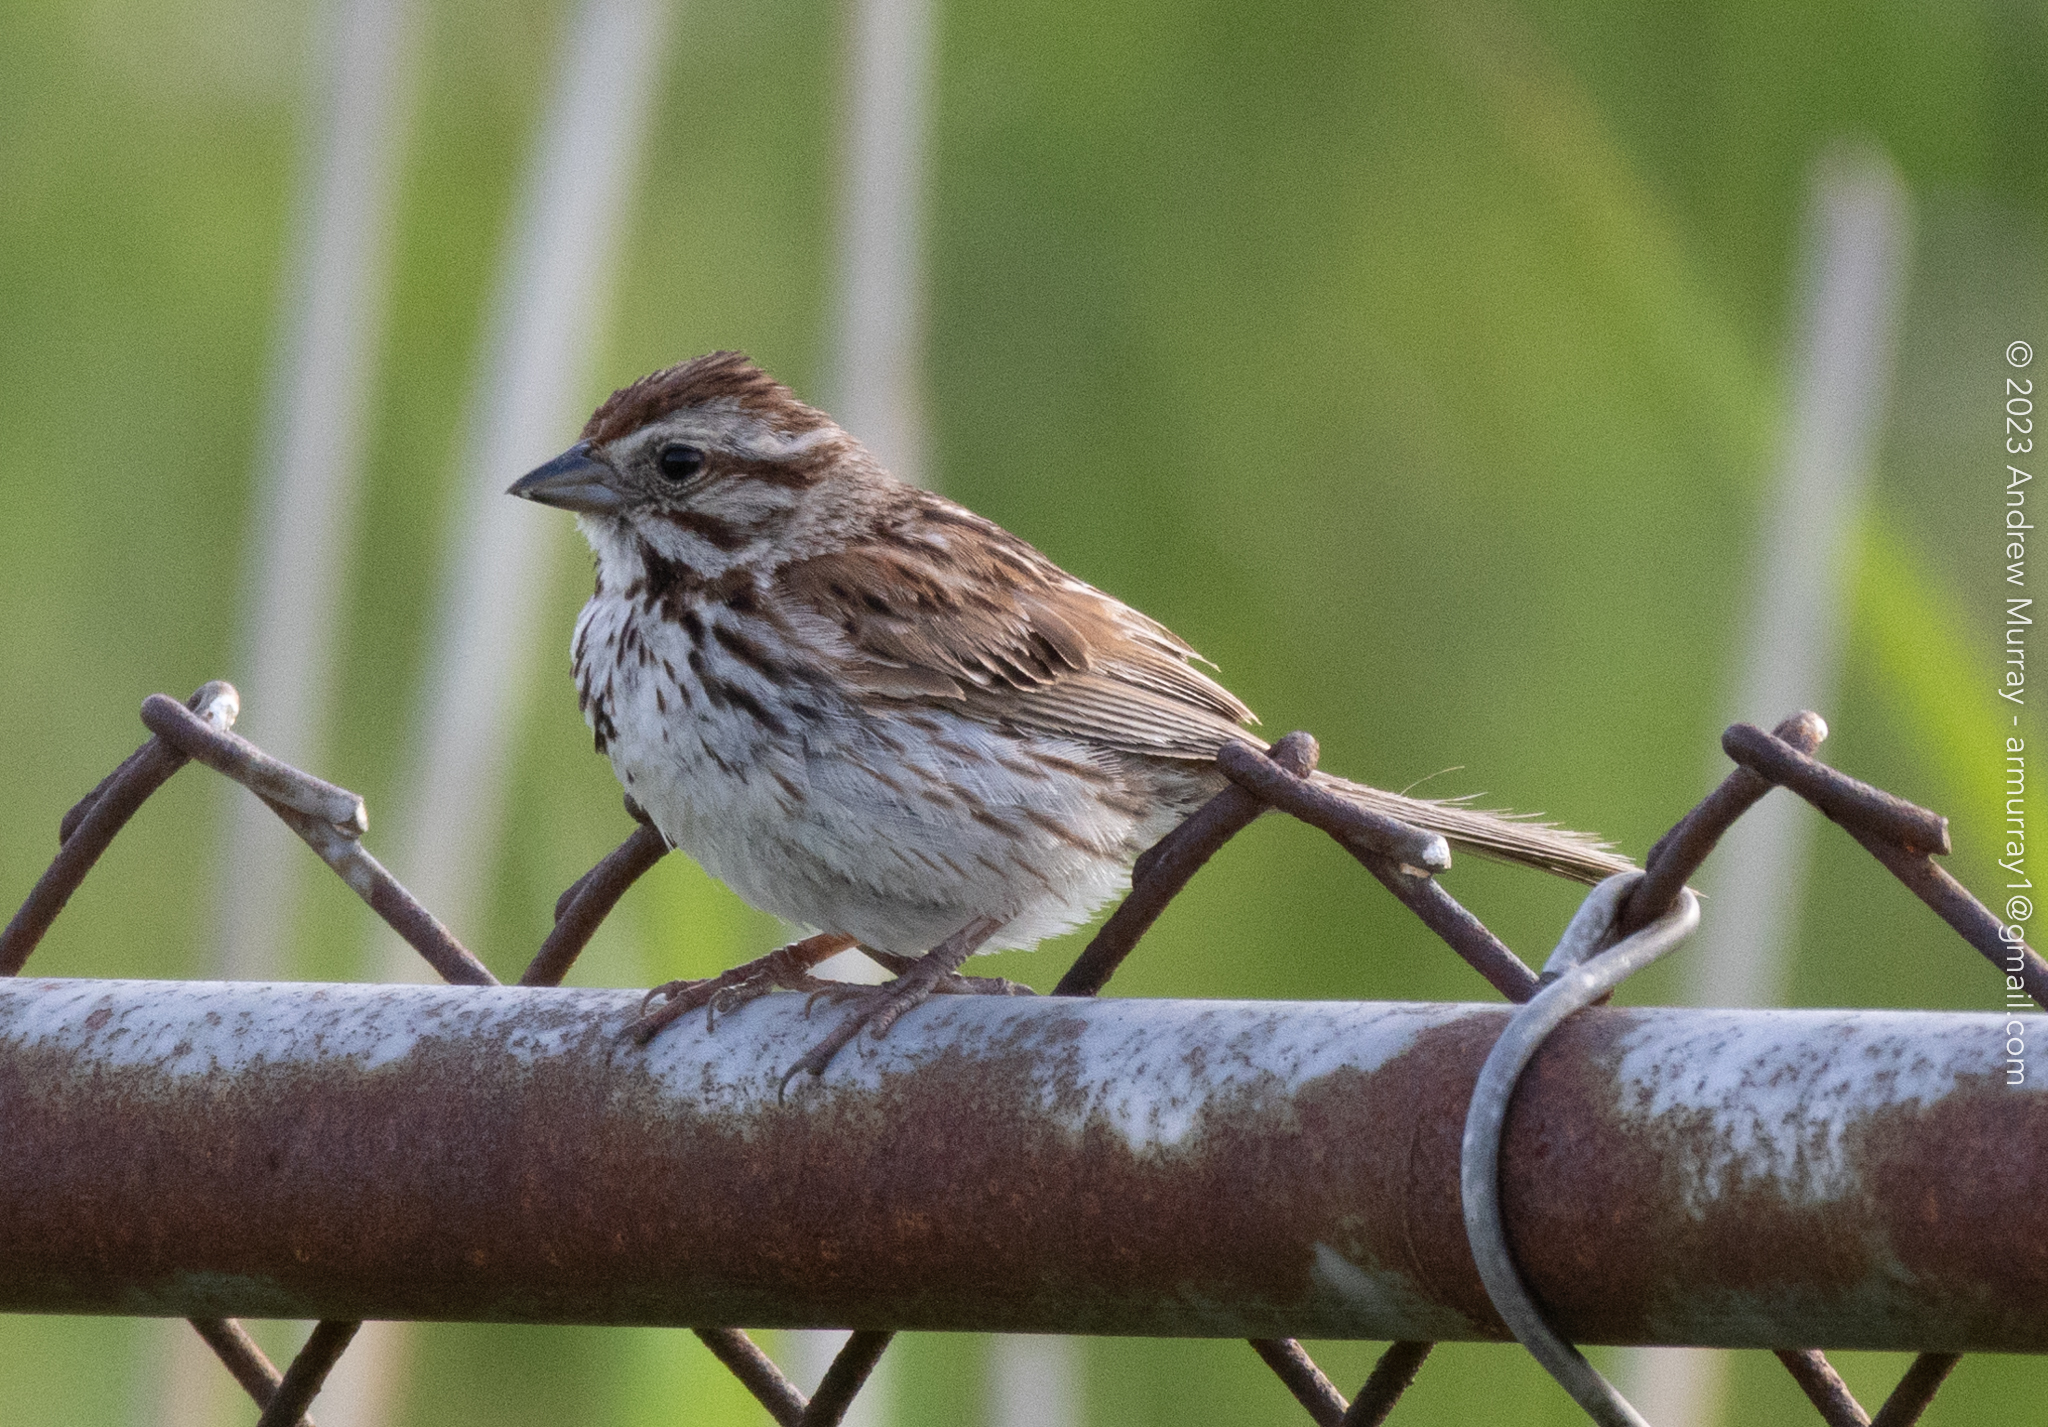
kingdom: Animalia
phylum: Chordata
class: Aves
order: Passeriformes
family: Passerellidae
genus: Melospiza
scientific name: Melospiza melodia
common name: Song sparrow
